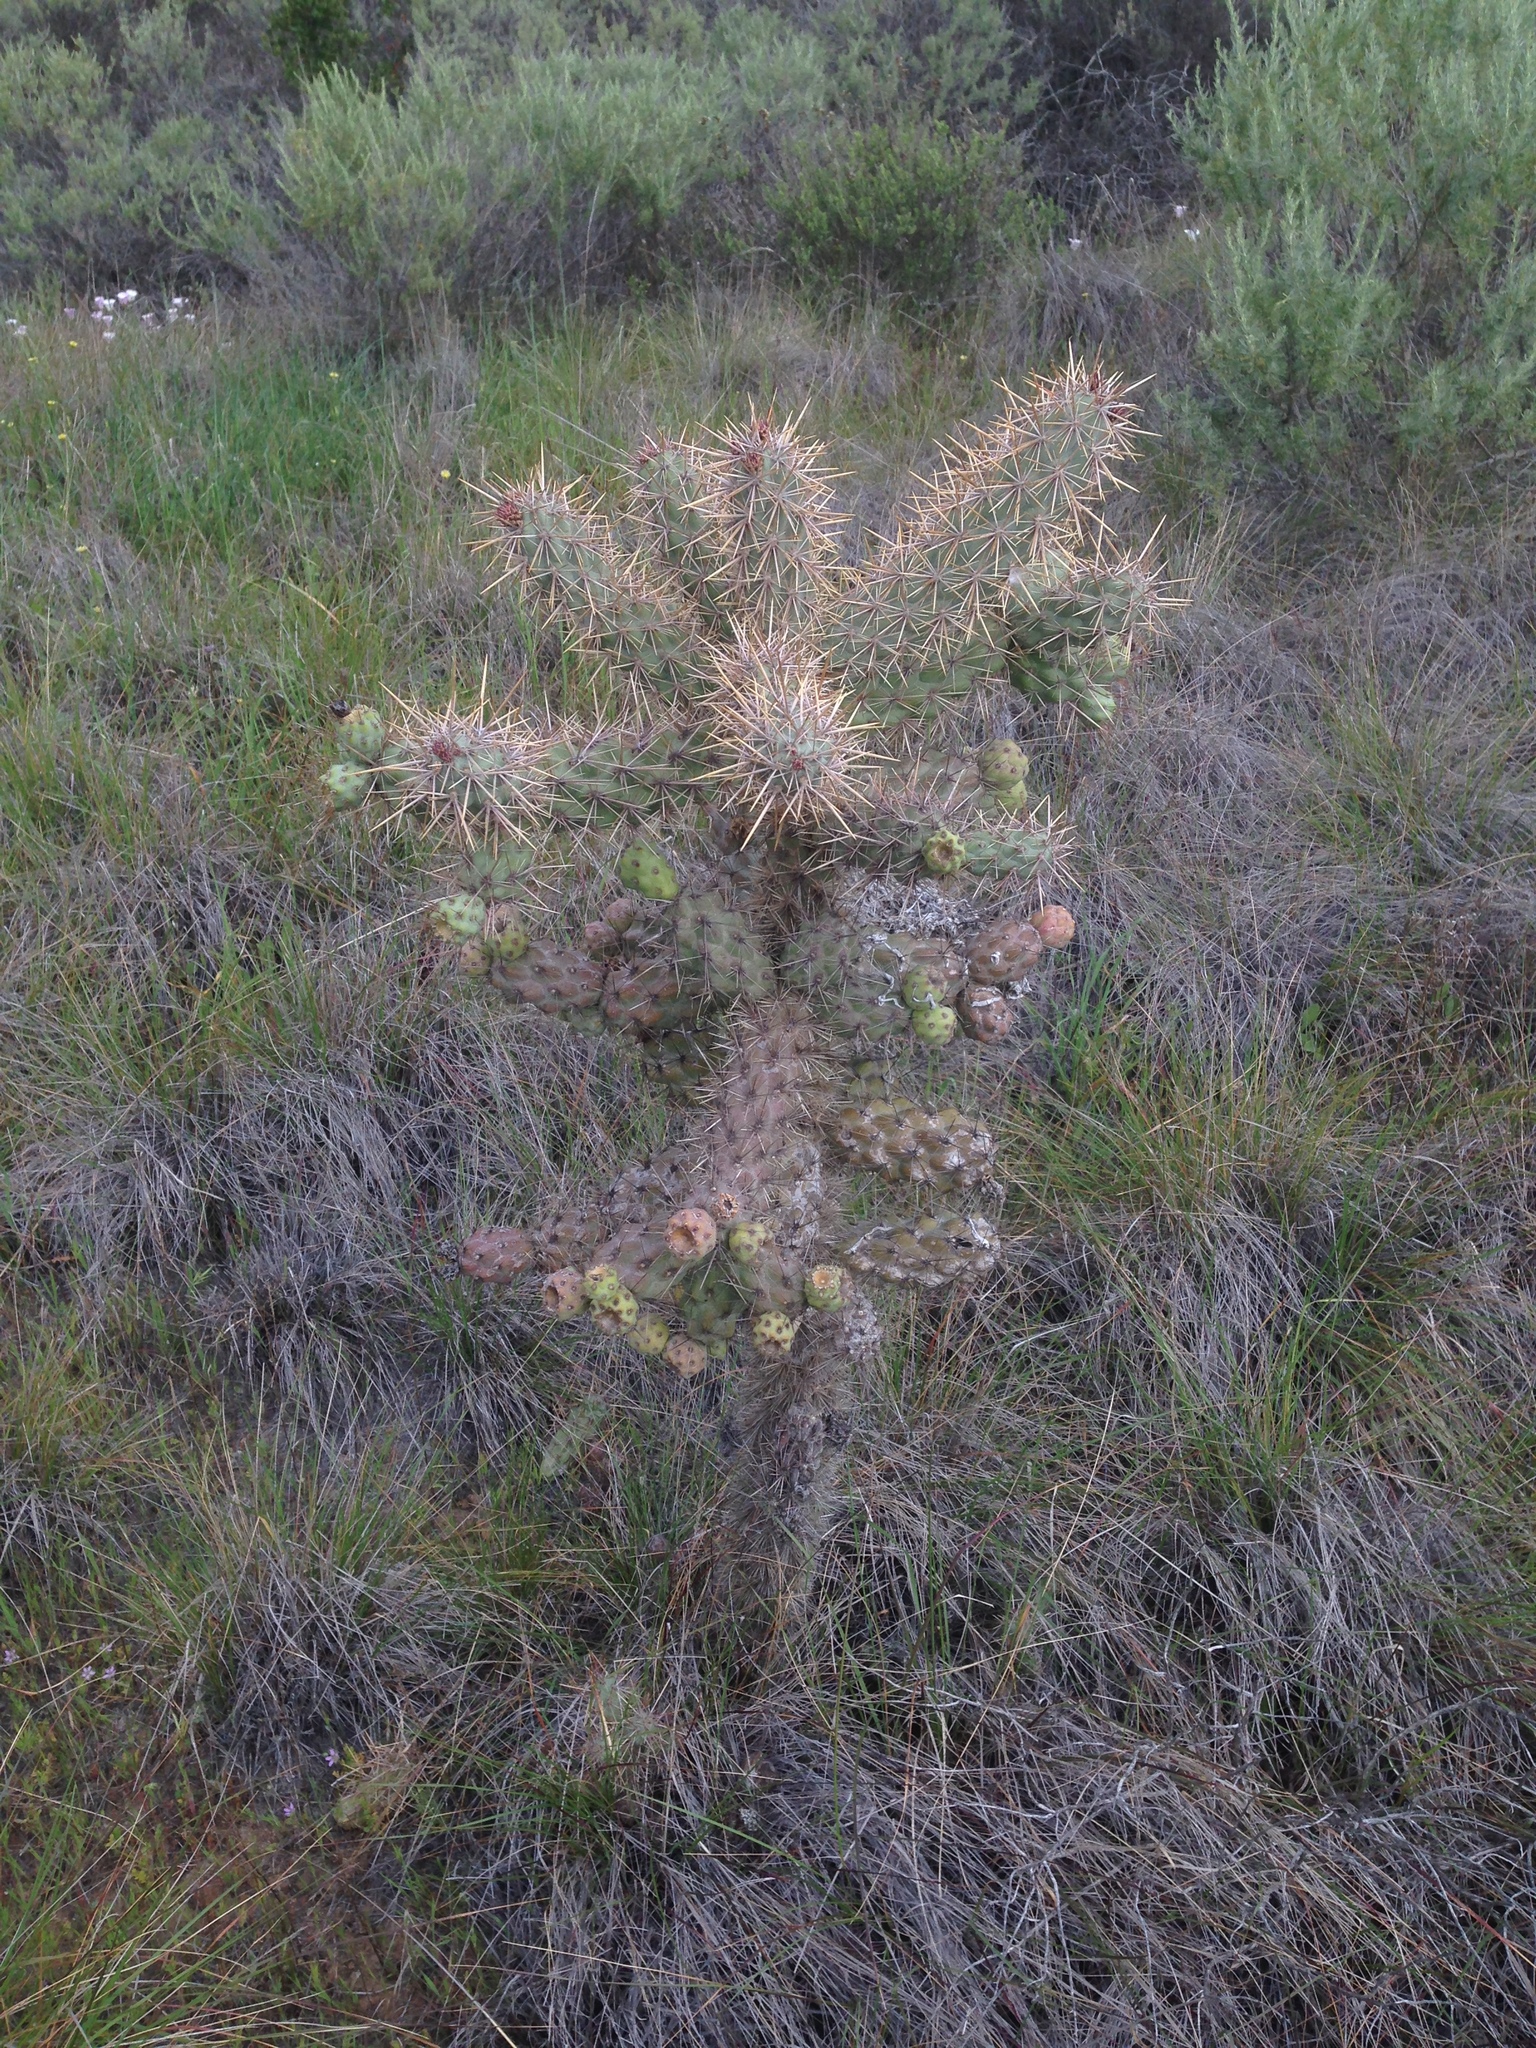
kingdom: Plantae
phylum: Tracheophyta
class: Magnoliopsida
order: Caryophyllales
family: Cactaceae
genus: Cylindropuntia
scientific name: Cylindropuntia prolifera
